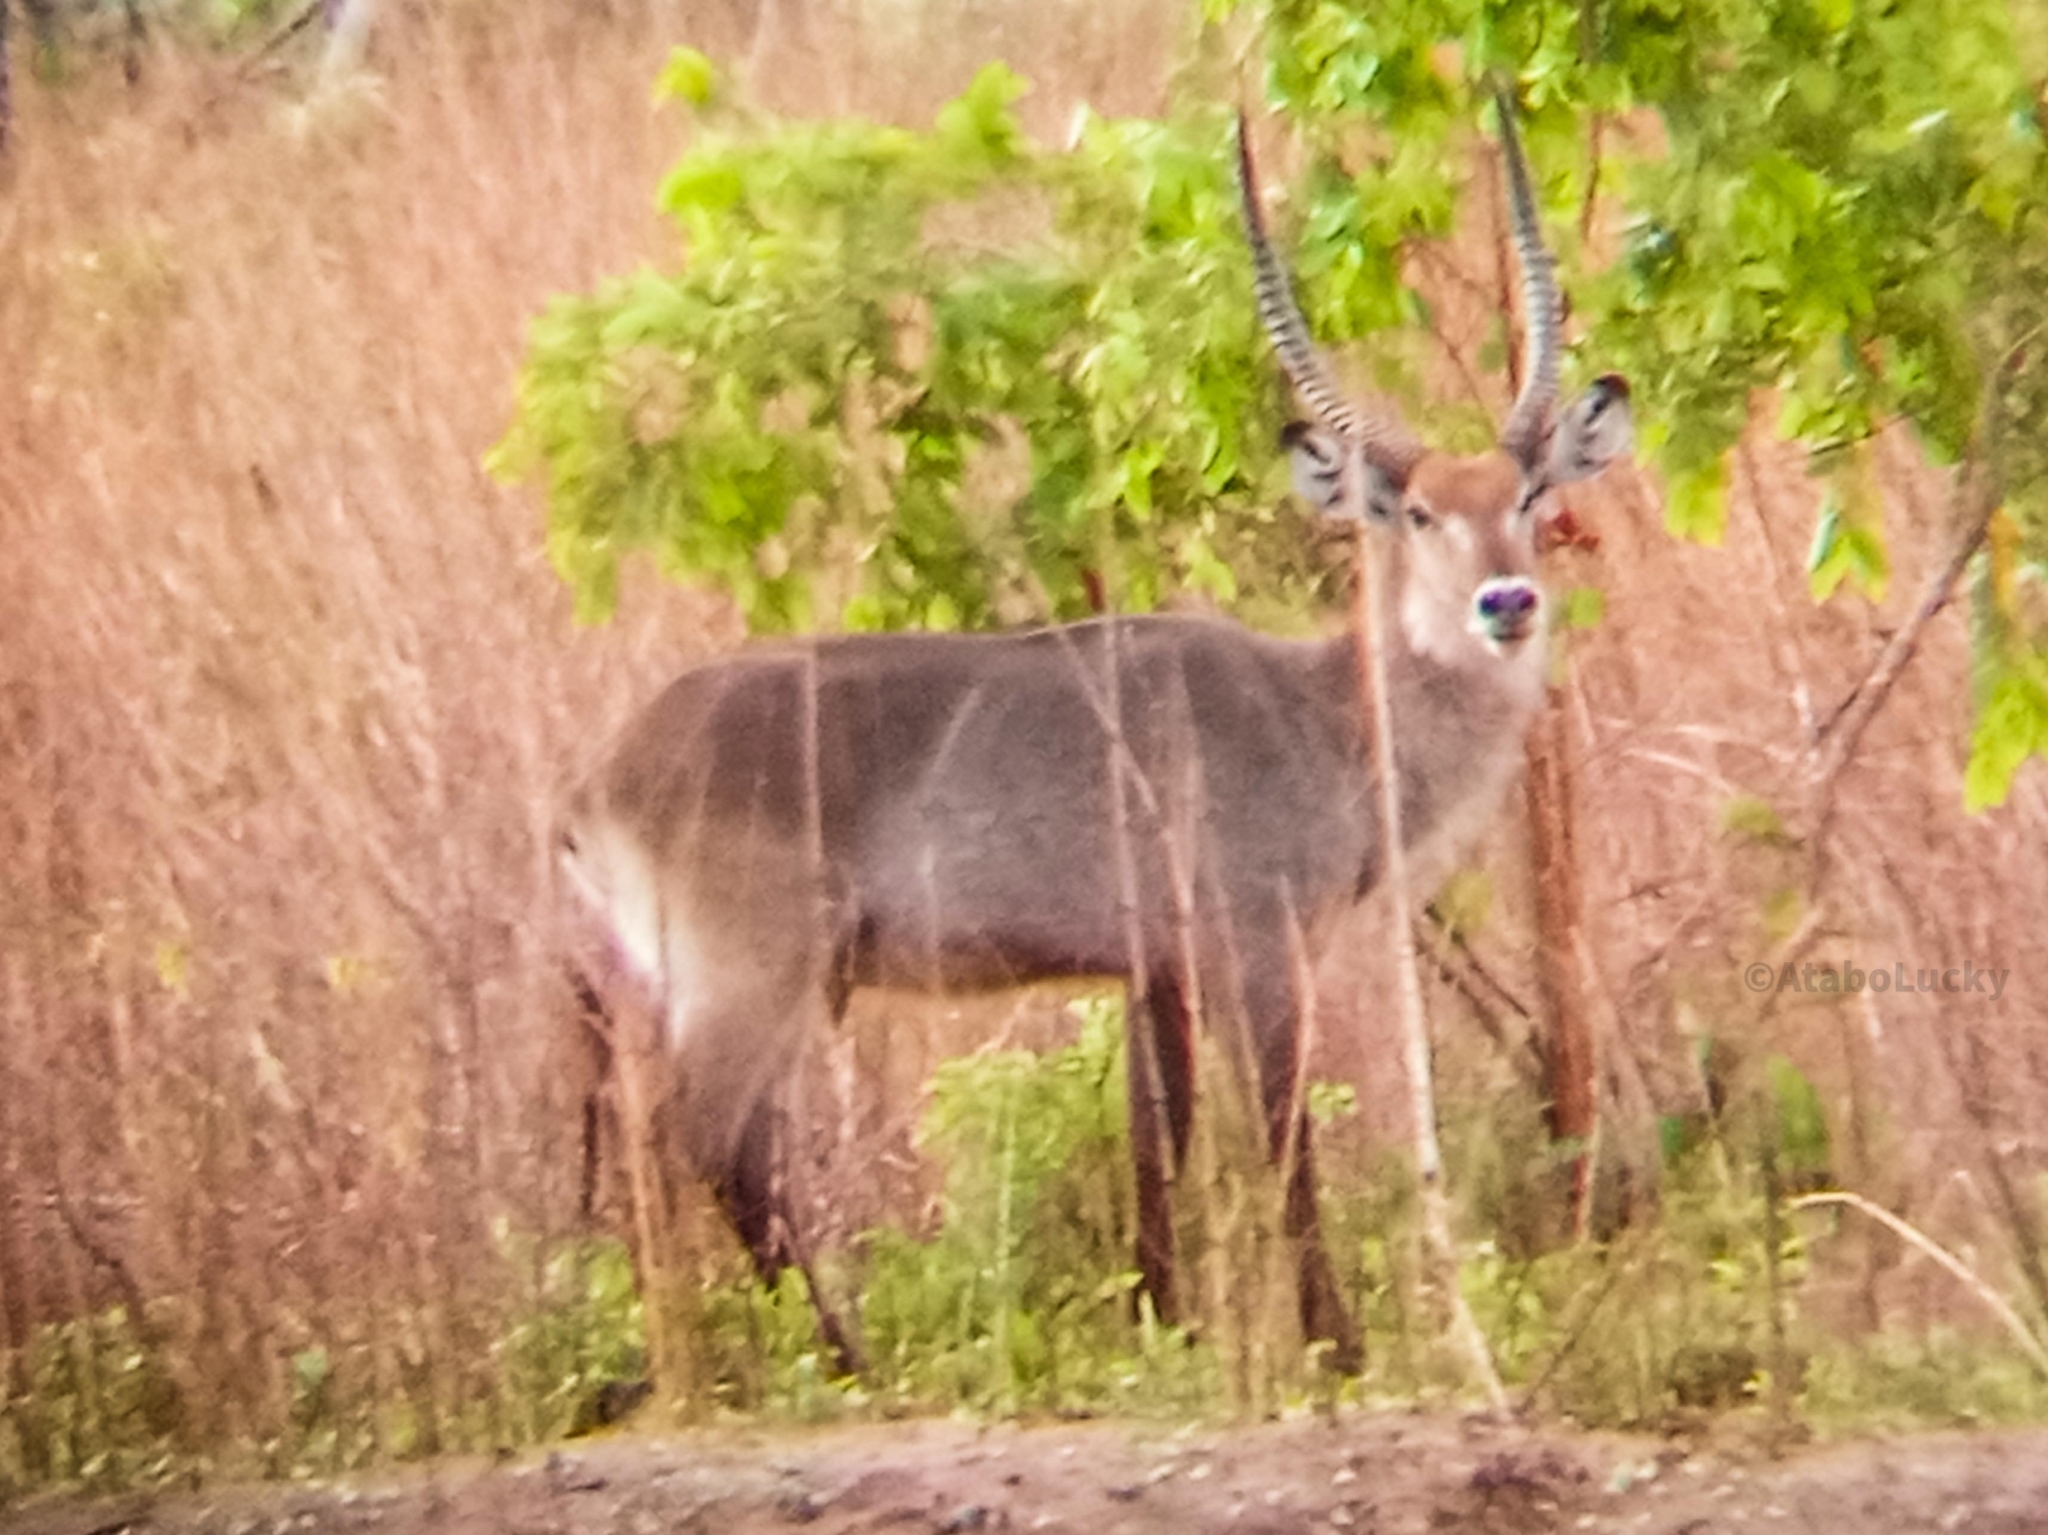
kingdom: Animalia
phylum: Chordata
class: Mammalia
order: Artiodactyla
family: Bovidae
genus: Kobus
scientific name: Kobus ellipsiprymnus
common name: Waterbuck
